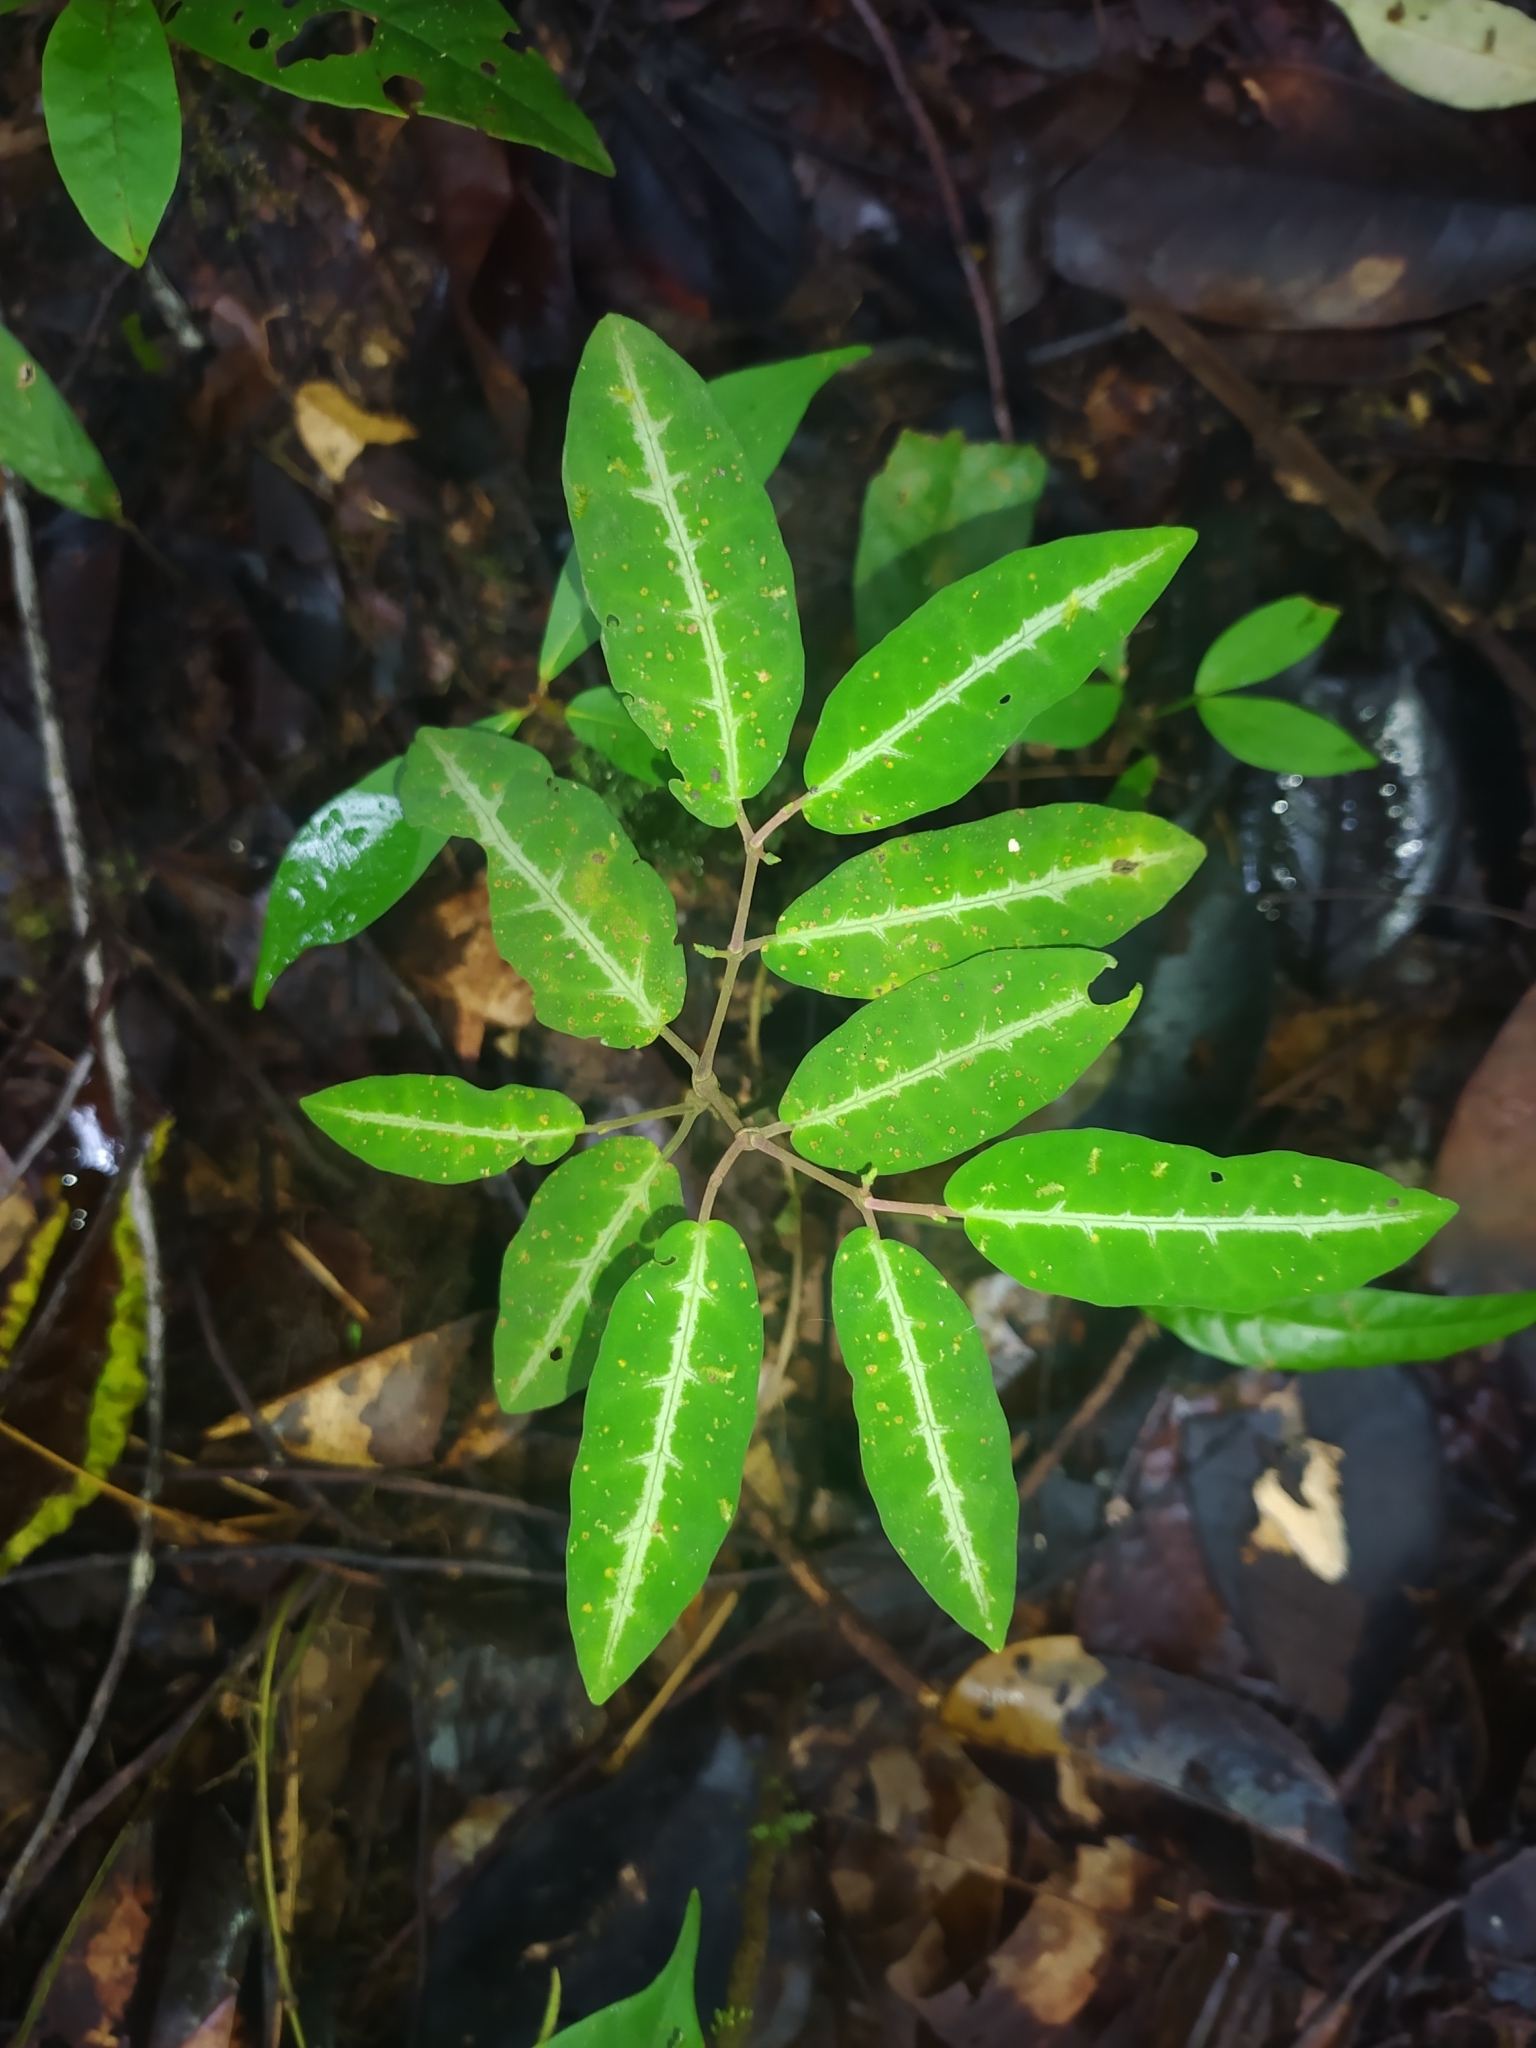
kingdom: Plantae
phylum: Tracheophyta
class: Magnoliopsida
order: Piperales
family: Piperaceae
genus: Piper
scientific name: Piper consanguineum
